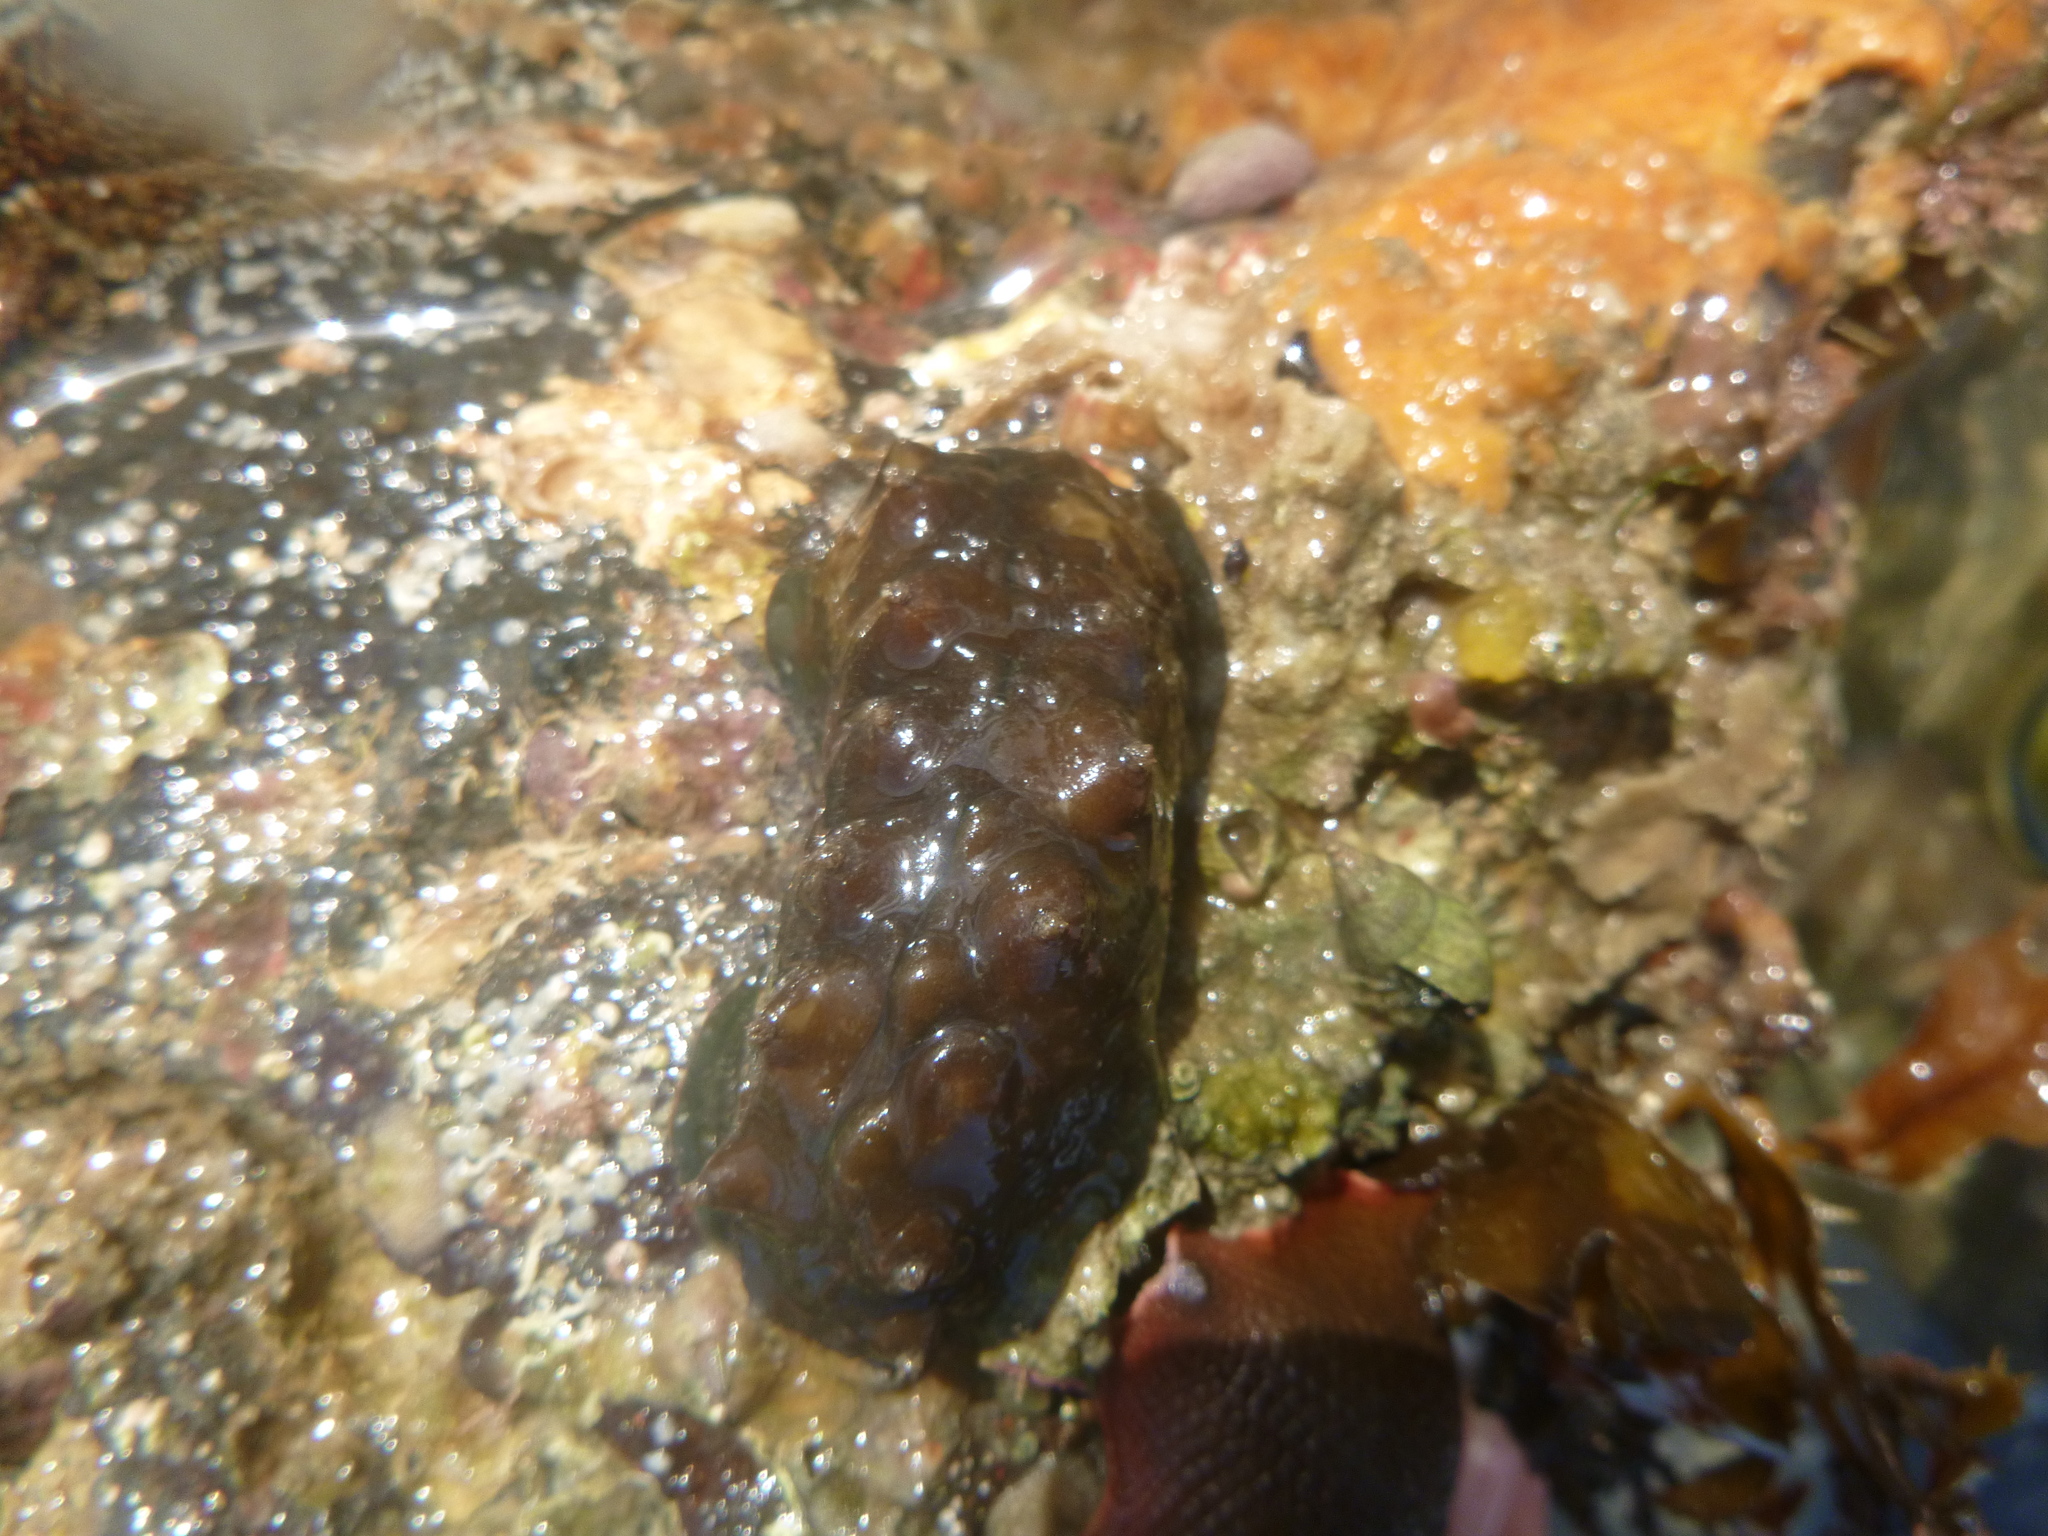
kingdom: Animalia
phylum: Mollusca
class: Polyplacophora
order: Chitonida
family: Acanthochitonidae
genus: Cryptoconchus
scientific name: Cryptoconchus porosus
